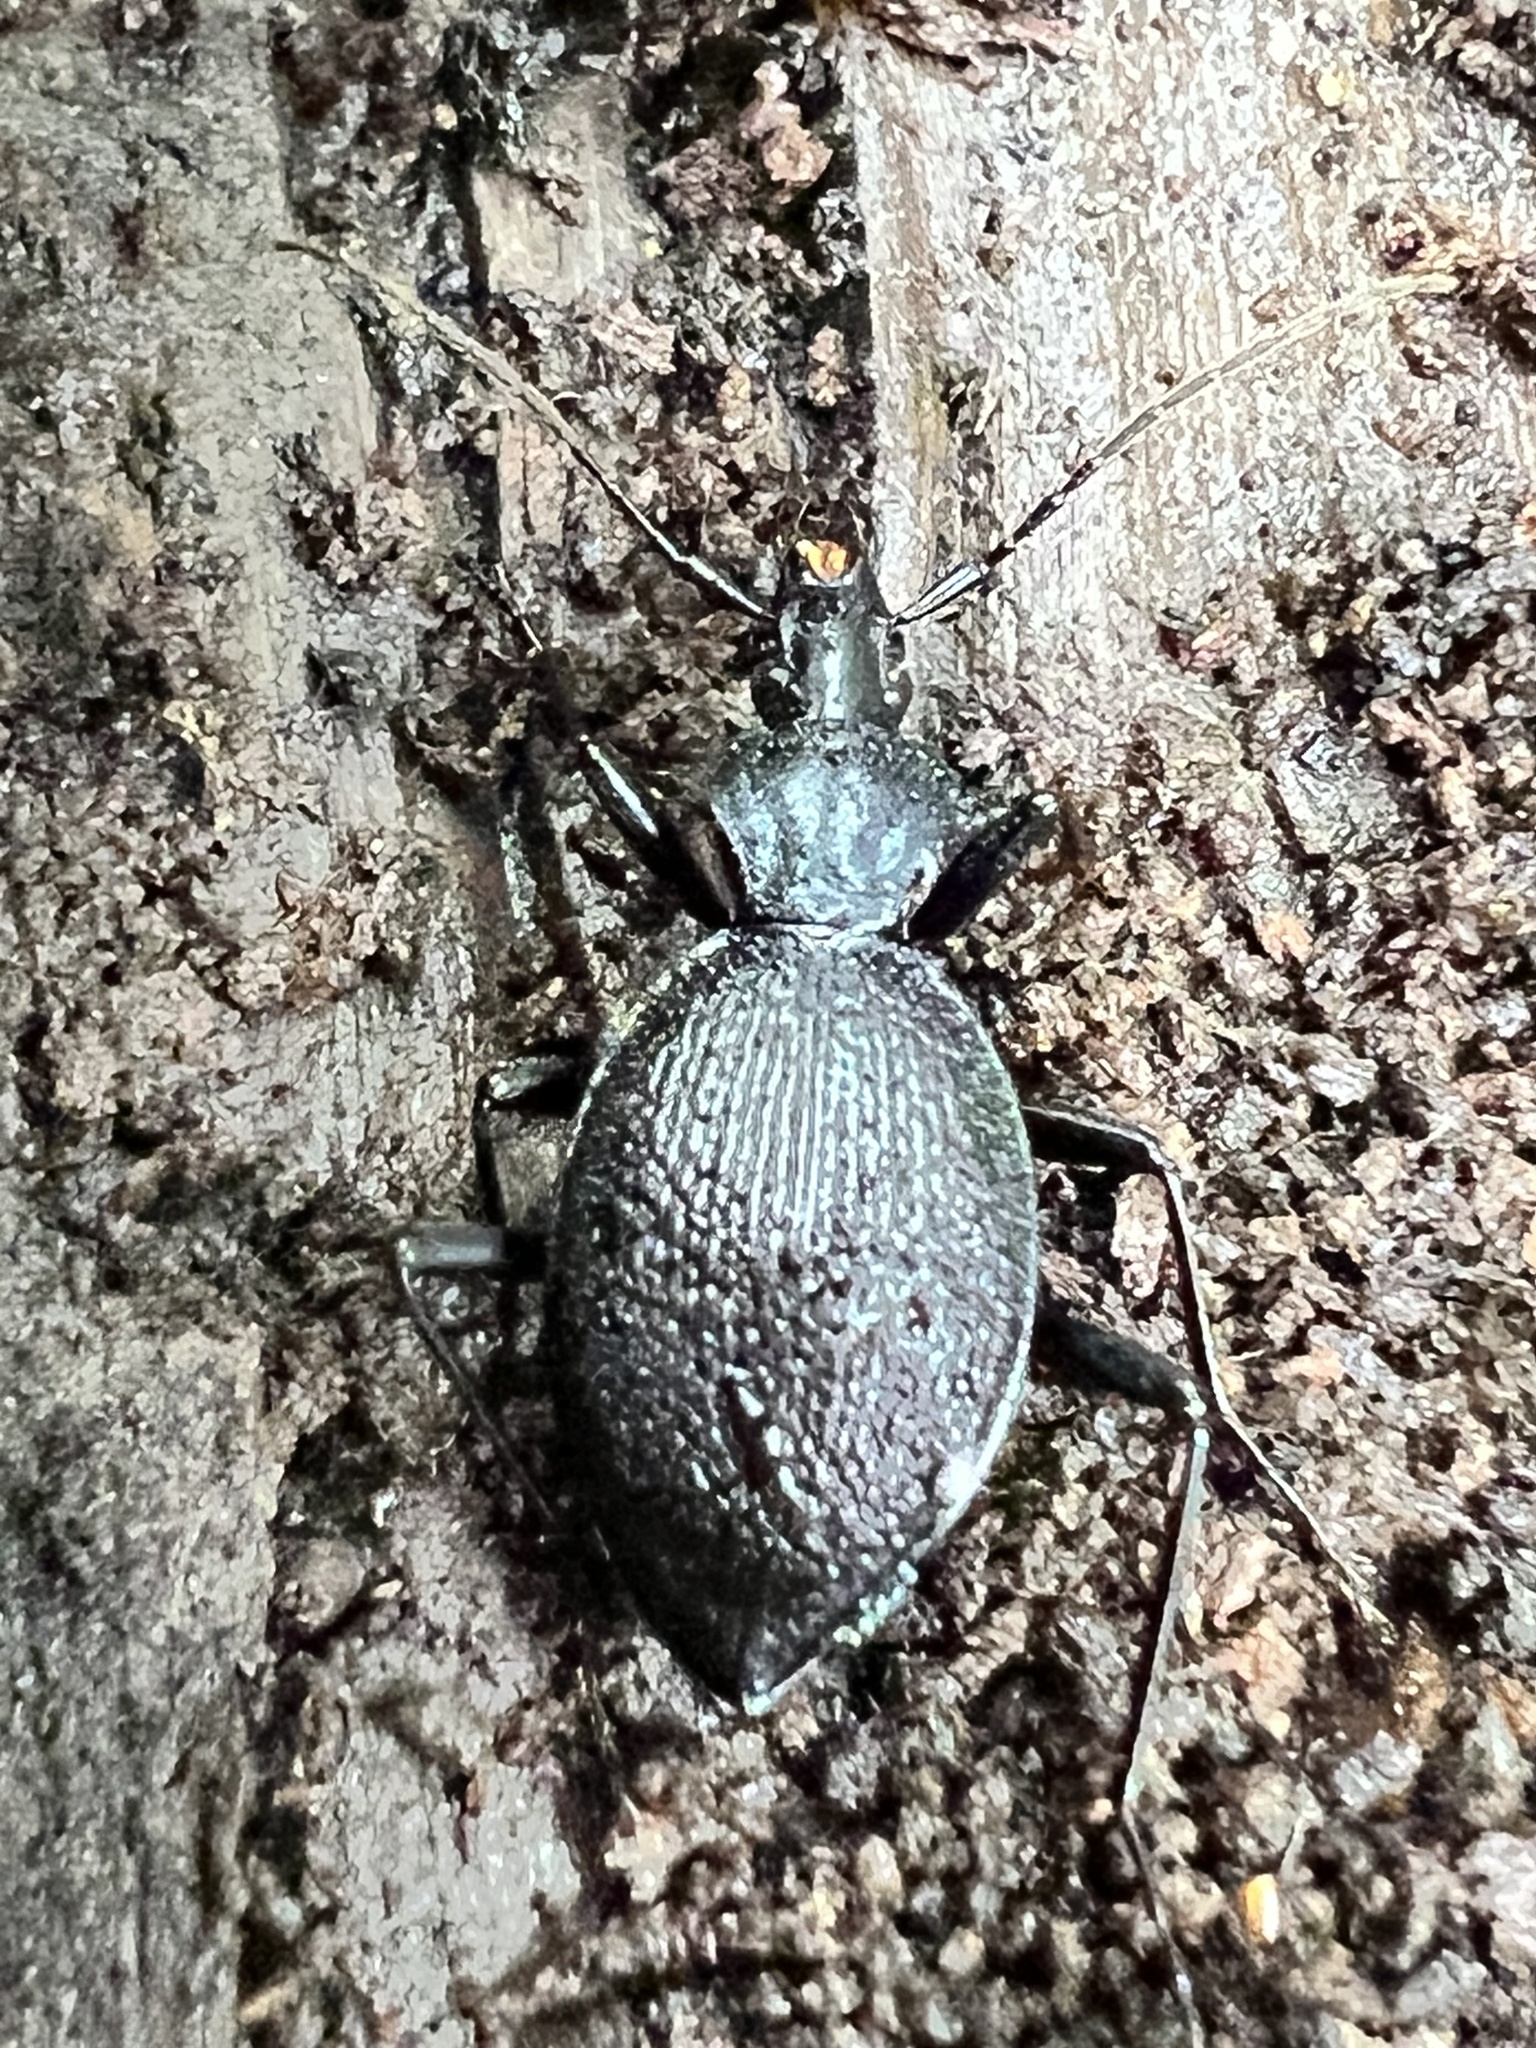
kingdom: Animalia
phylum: Arthropoda
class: Insecta
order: Coleoptera
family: Carabidae
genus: Scaphinotus
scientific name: Scaphinotus marginatus
